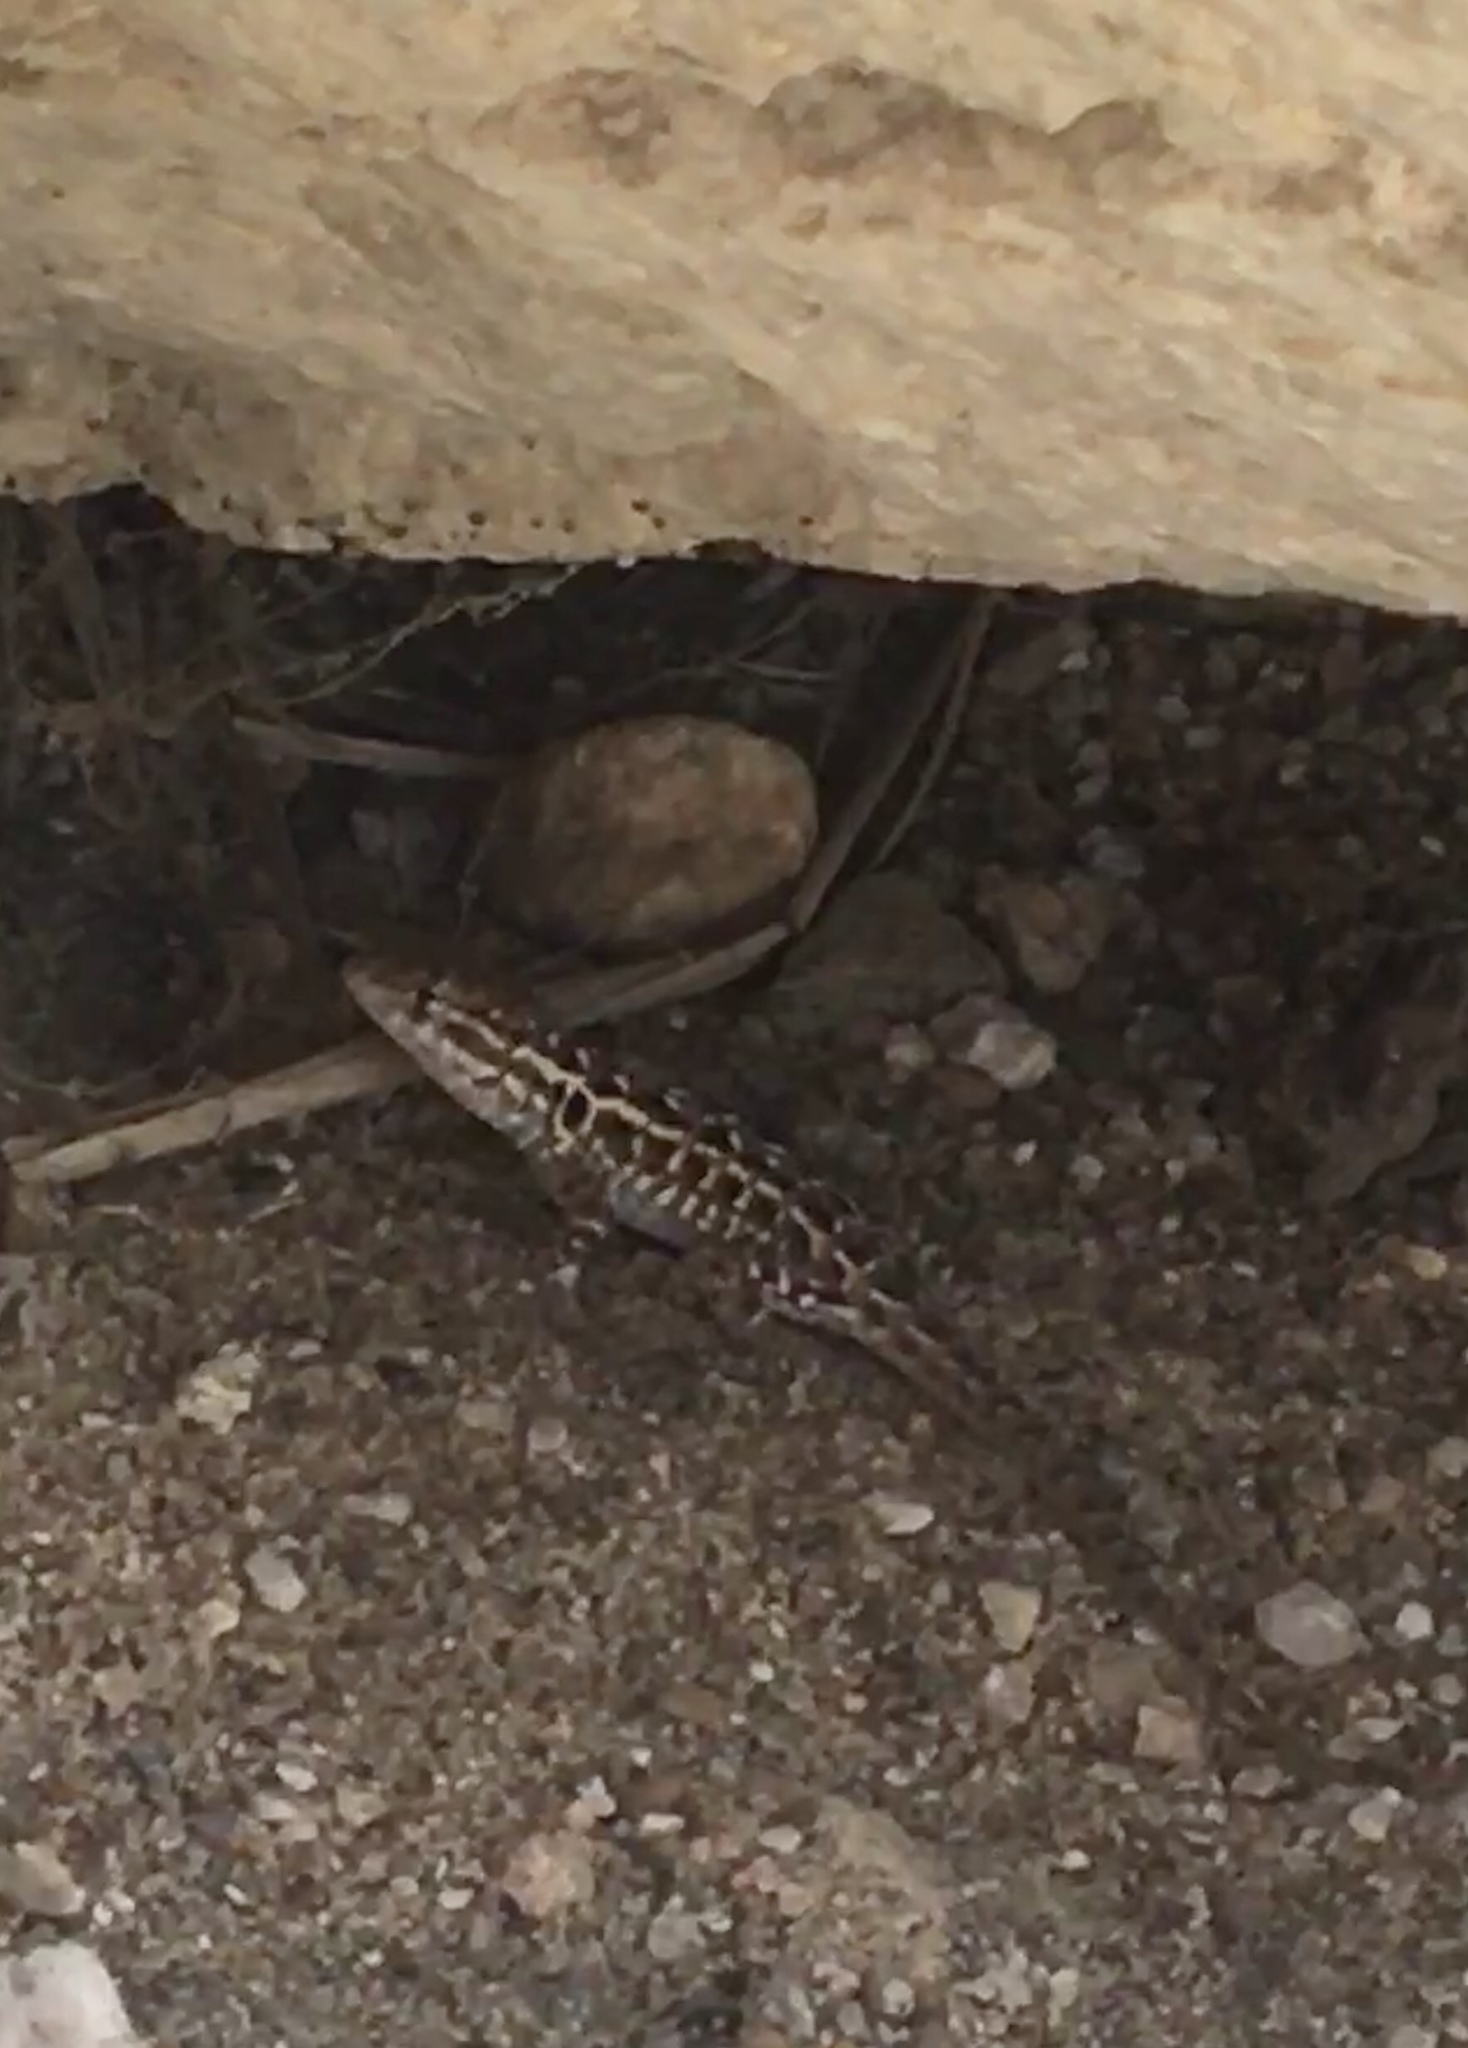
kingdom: Animalia
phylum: Chordata
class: Squamata
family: Phrynosomatidae
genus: Uta
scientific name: Uta stansburiana
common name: Side-blotched lizard
